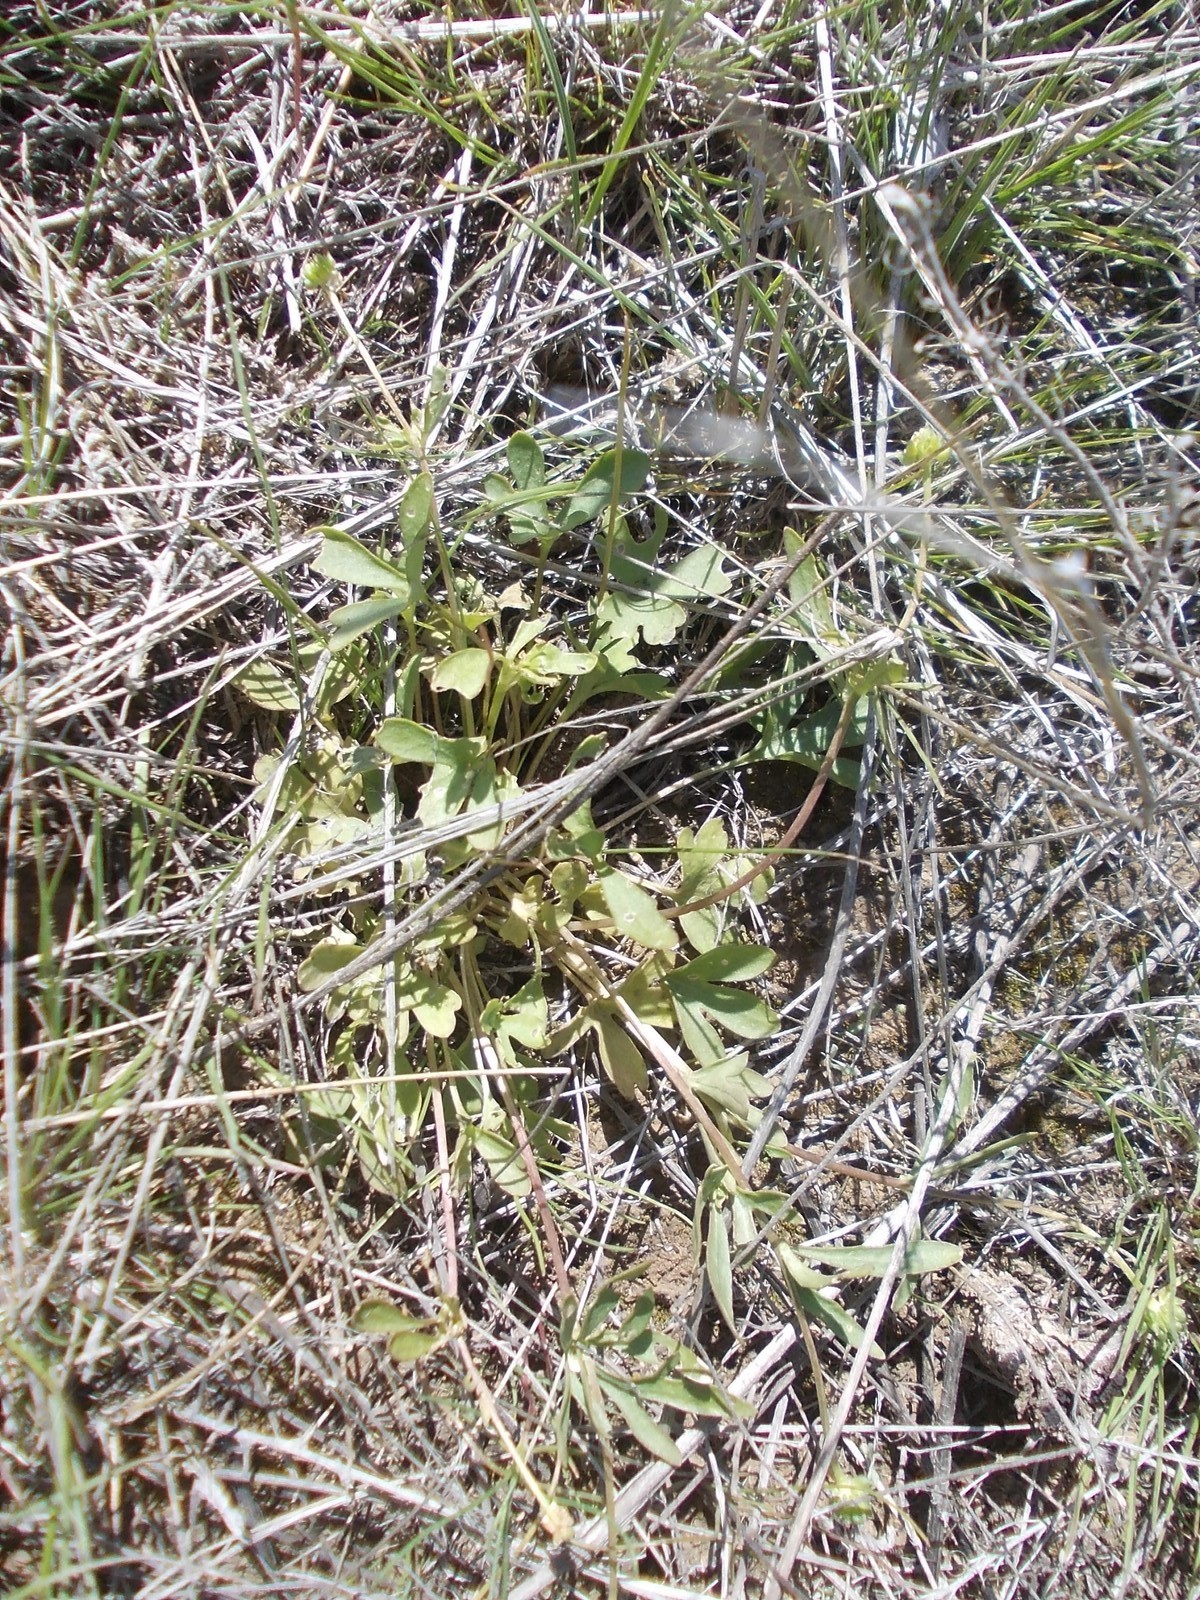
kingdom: Plantae
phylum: Tracheophyta
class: Magnoliopsida
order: Ranunculales
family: Ranunculaceae
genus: Ranunculus
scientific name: Ranunculus polyrhizos
